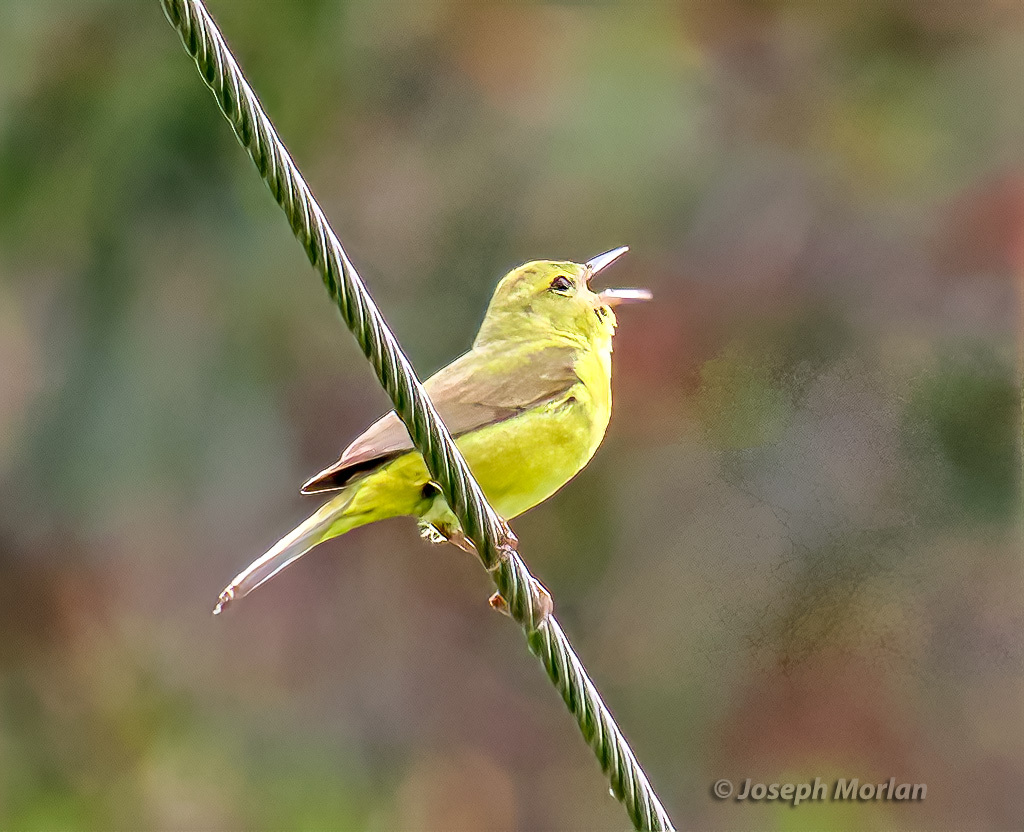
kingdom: Animalia
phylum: Chordata
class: Aves
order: Passeriformes
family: Parulidae
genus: Leiothlypis
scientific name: Leiothlypis celata
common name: Orange-crowned warbler
